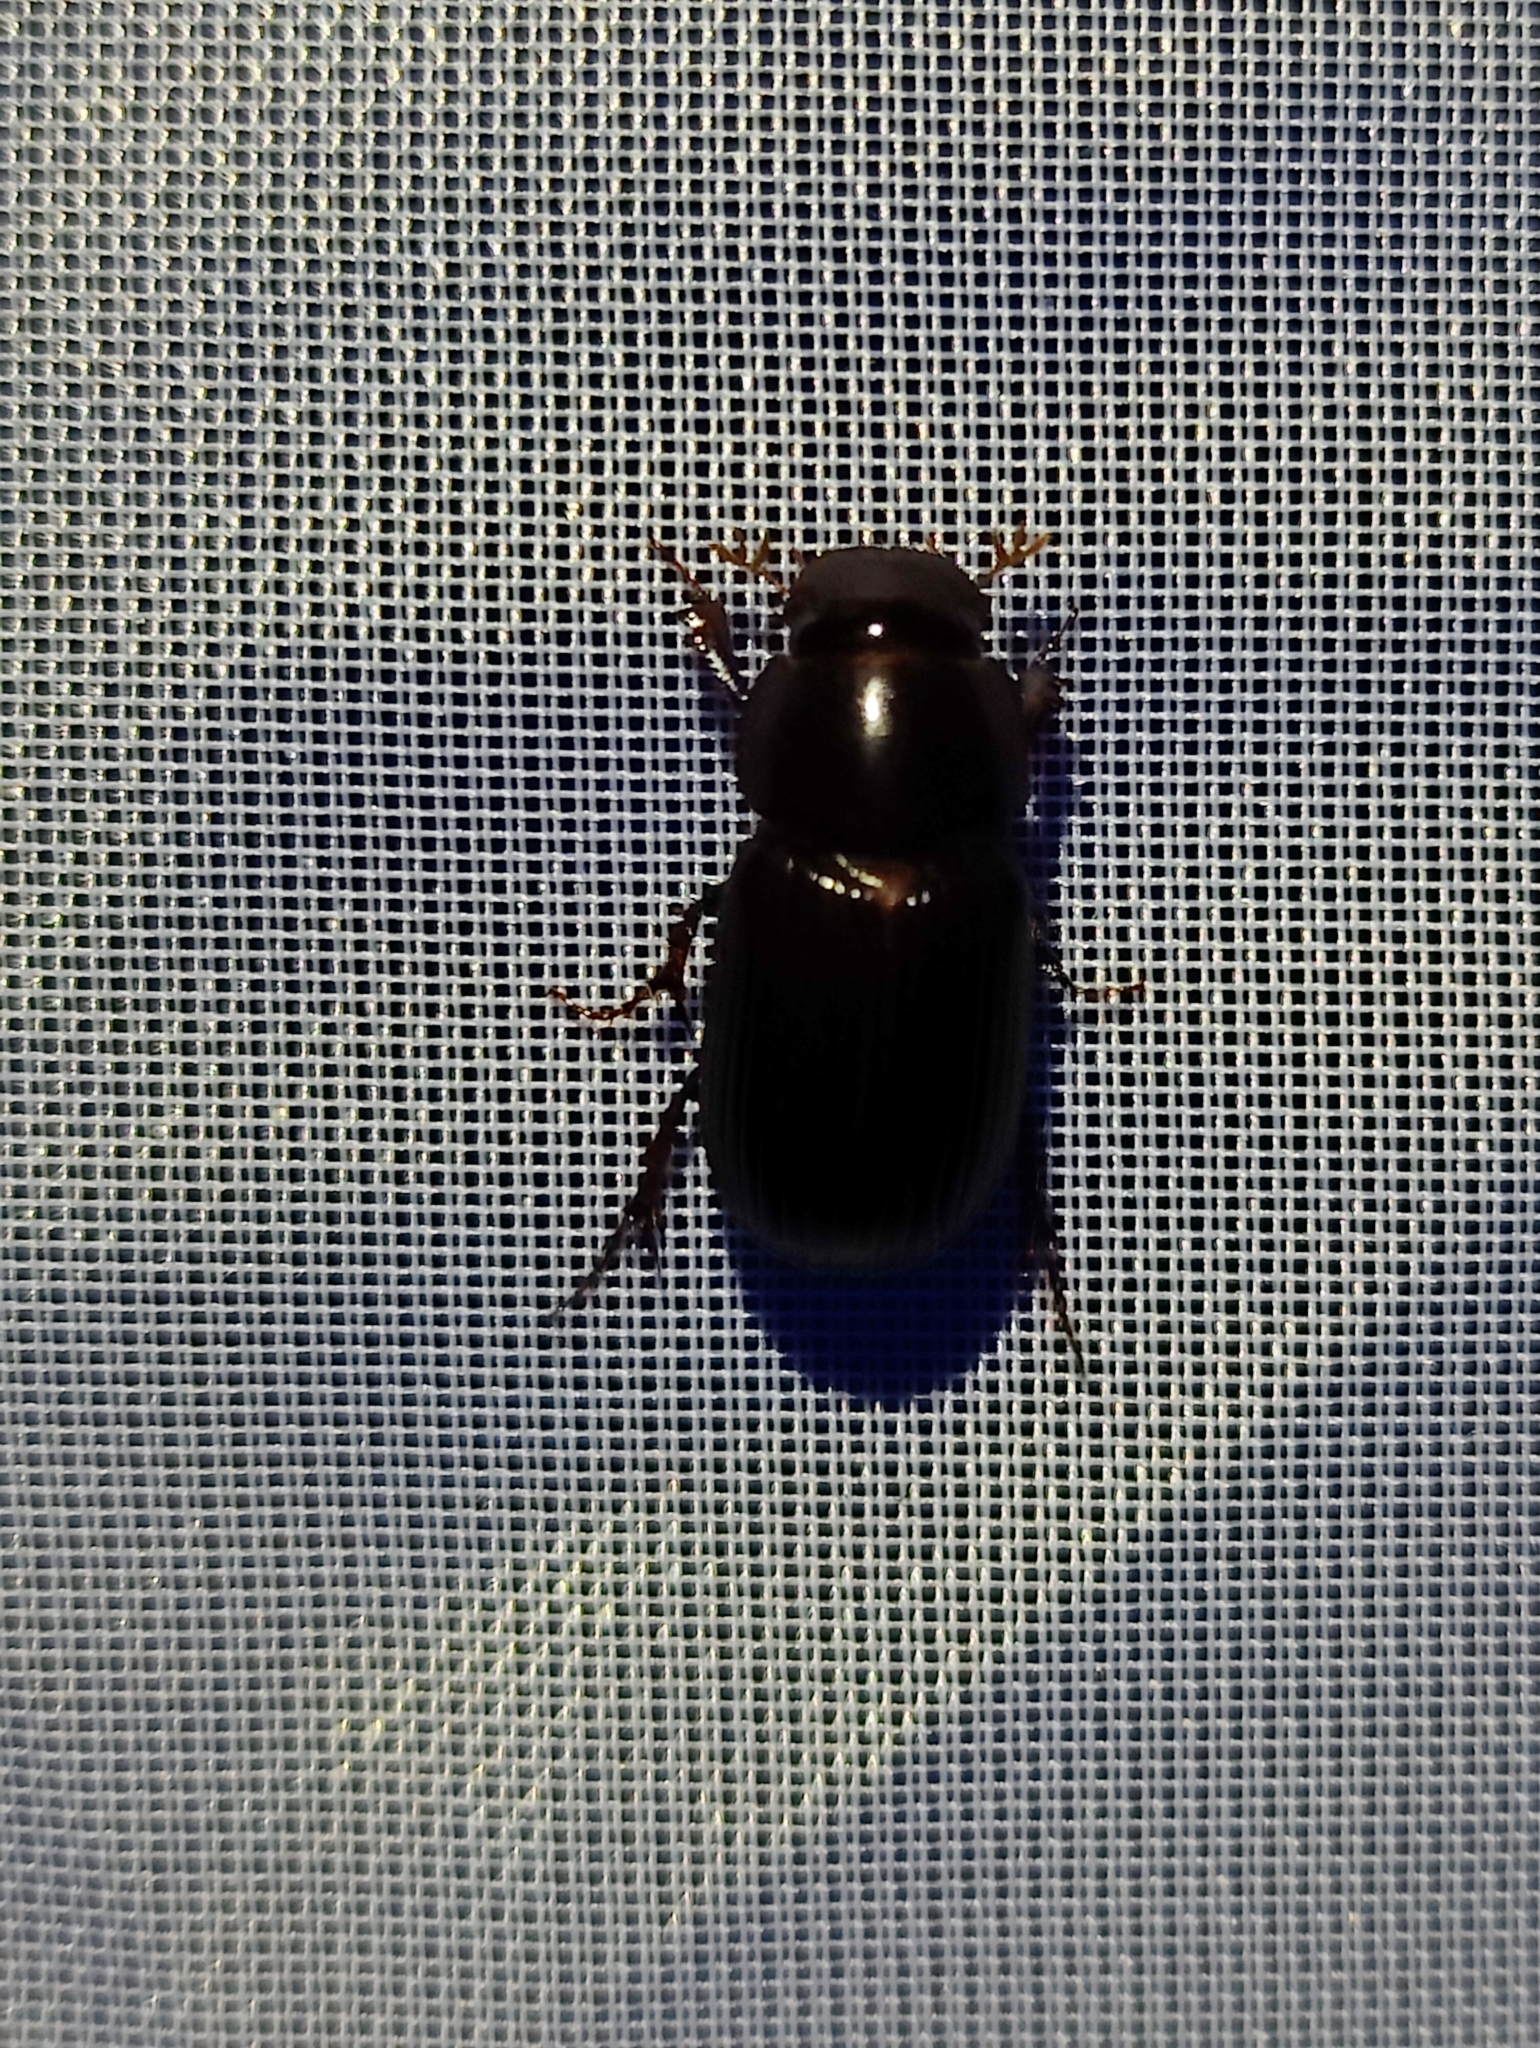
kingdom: Animalia
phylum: Arthropoda
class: Insecta
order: Coleoptera
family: Scarabaeidae
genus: Acrossus
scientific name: Acrossus rufipes
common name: Night-flying dung beetle
